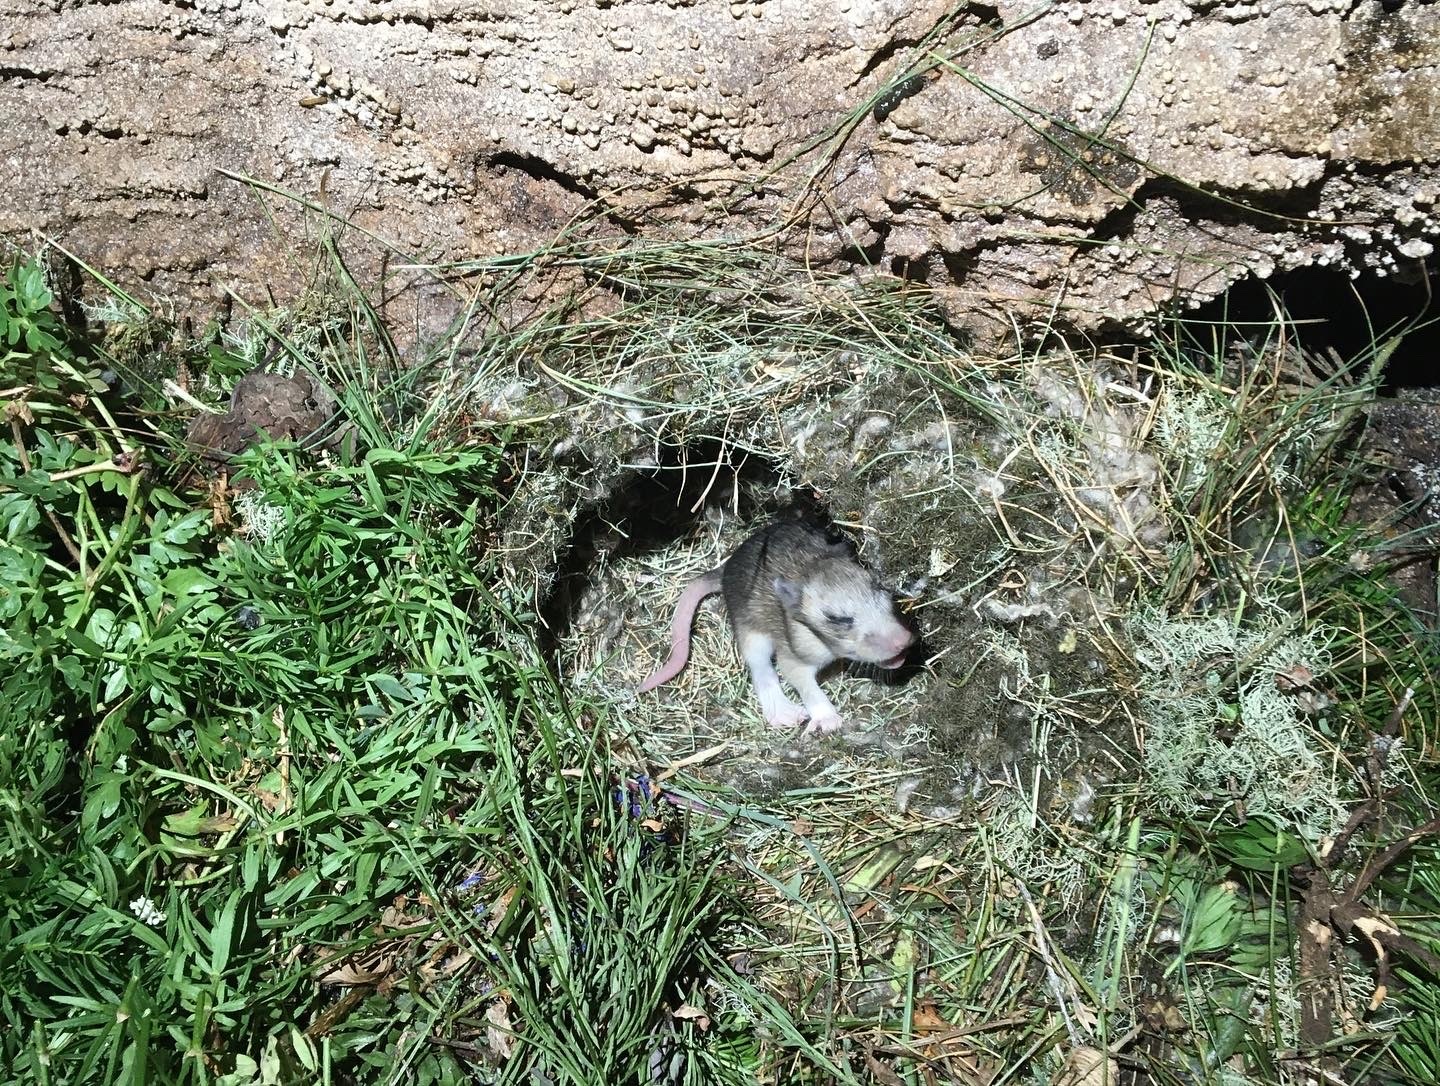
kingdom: Animalia
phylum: Chordata
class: Mammalia
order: Rodentia
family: Cricetidae
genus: Neotoma
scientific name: Neotoma cinerea
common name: Bushy-tailed woodrat
